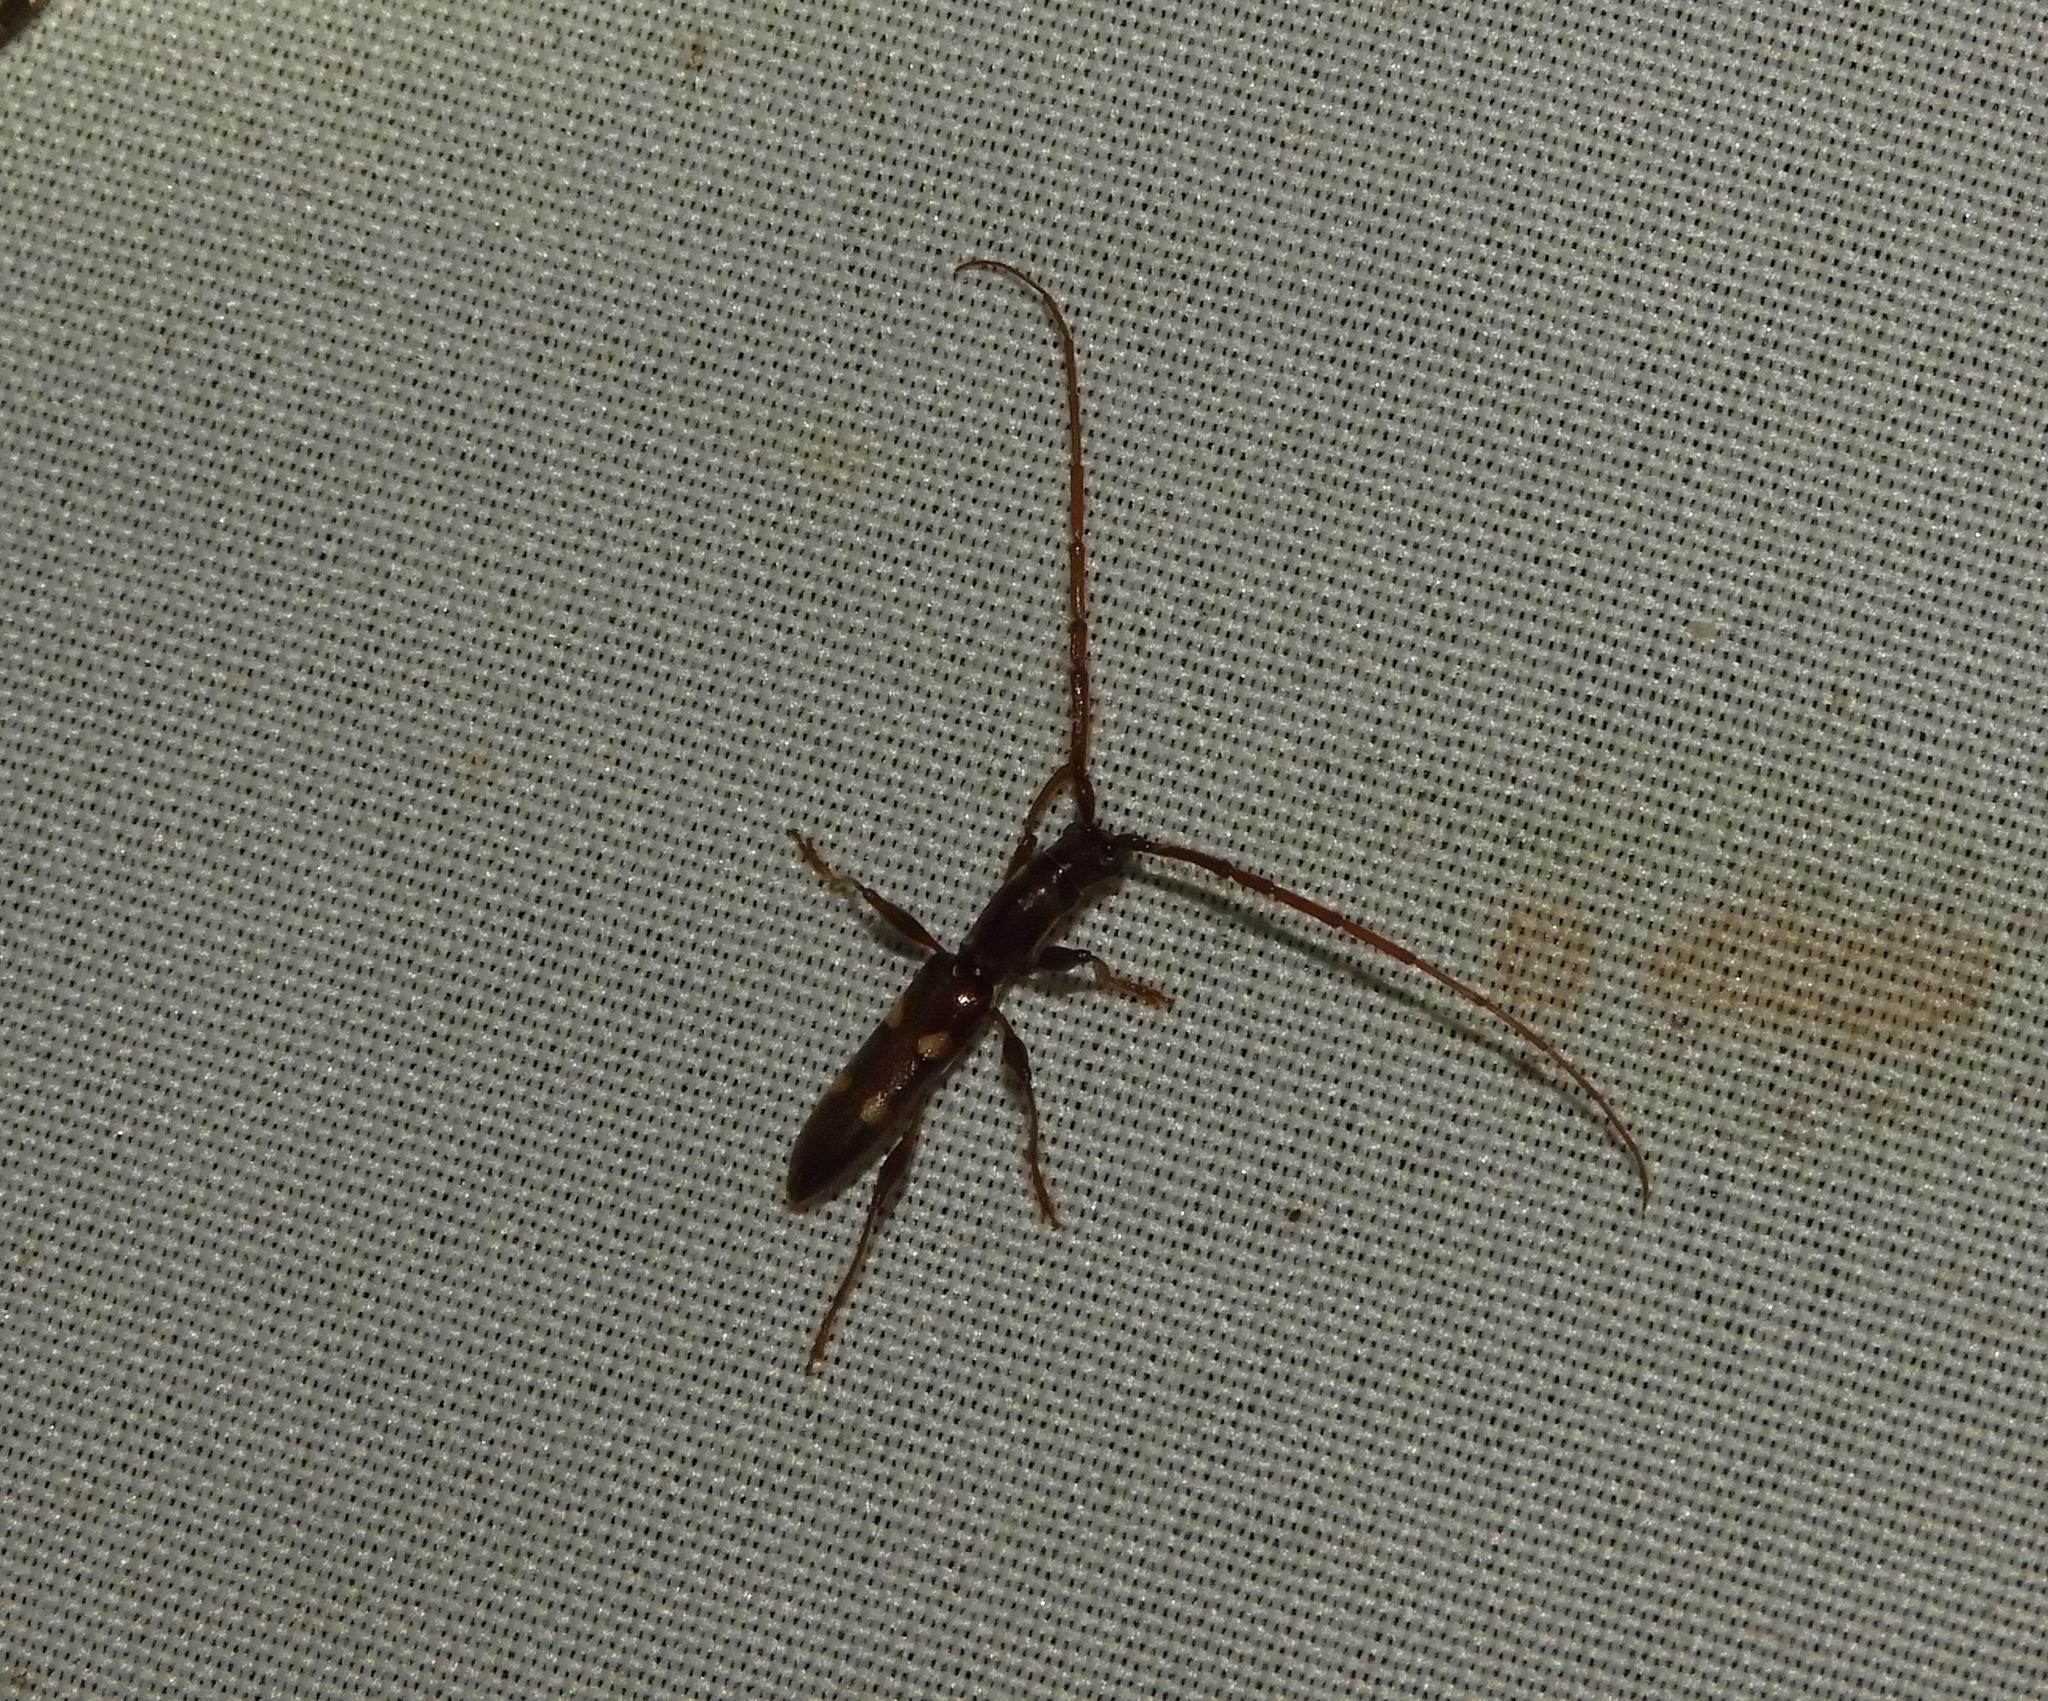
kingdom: Animalia
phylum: Arthropoda
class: Insecta
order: Coleoptera
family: Cerambycidae
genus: Neocompsa
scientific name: Neocompsa
